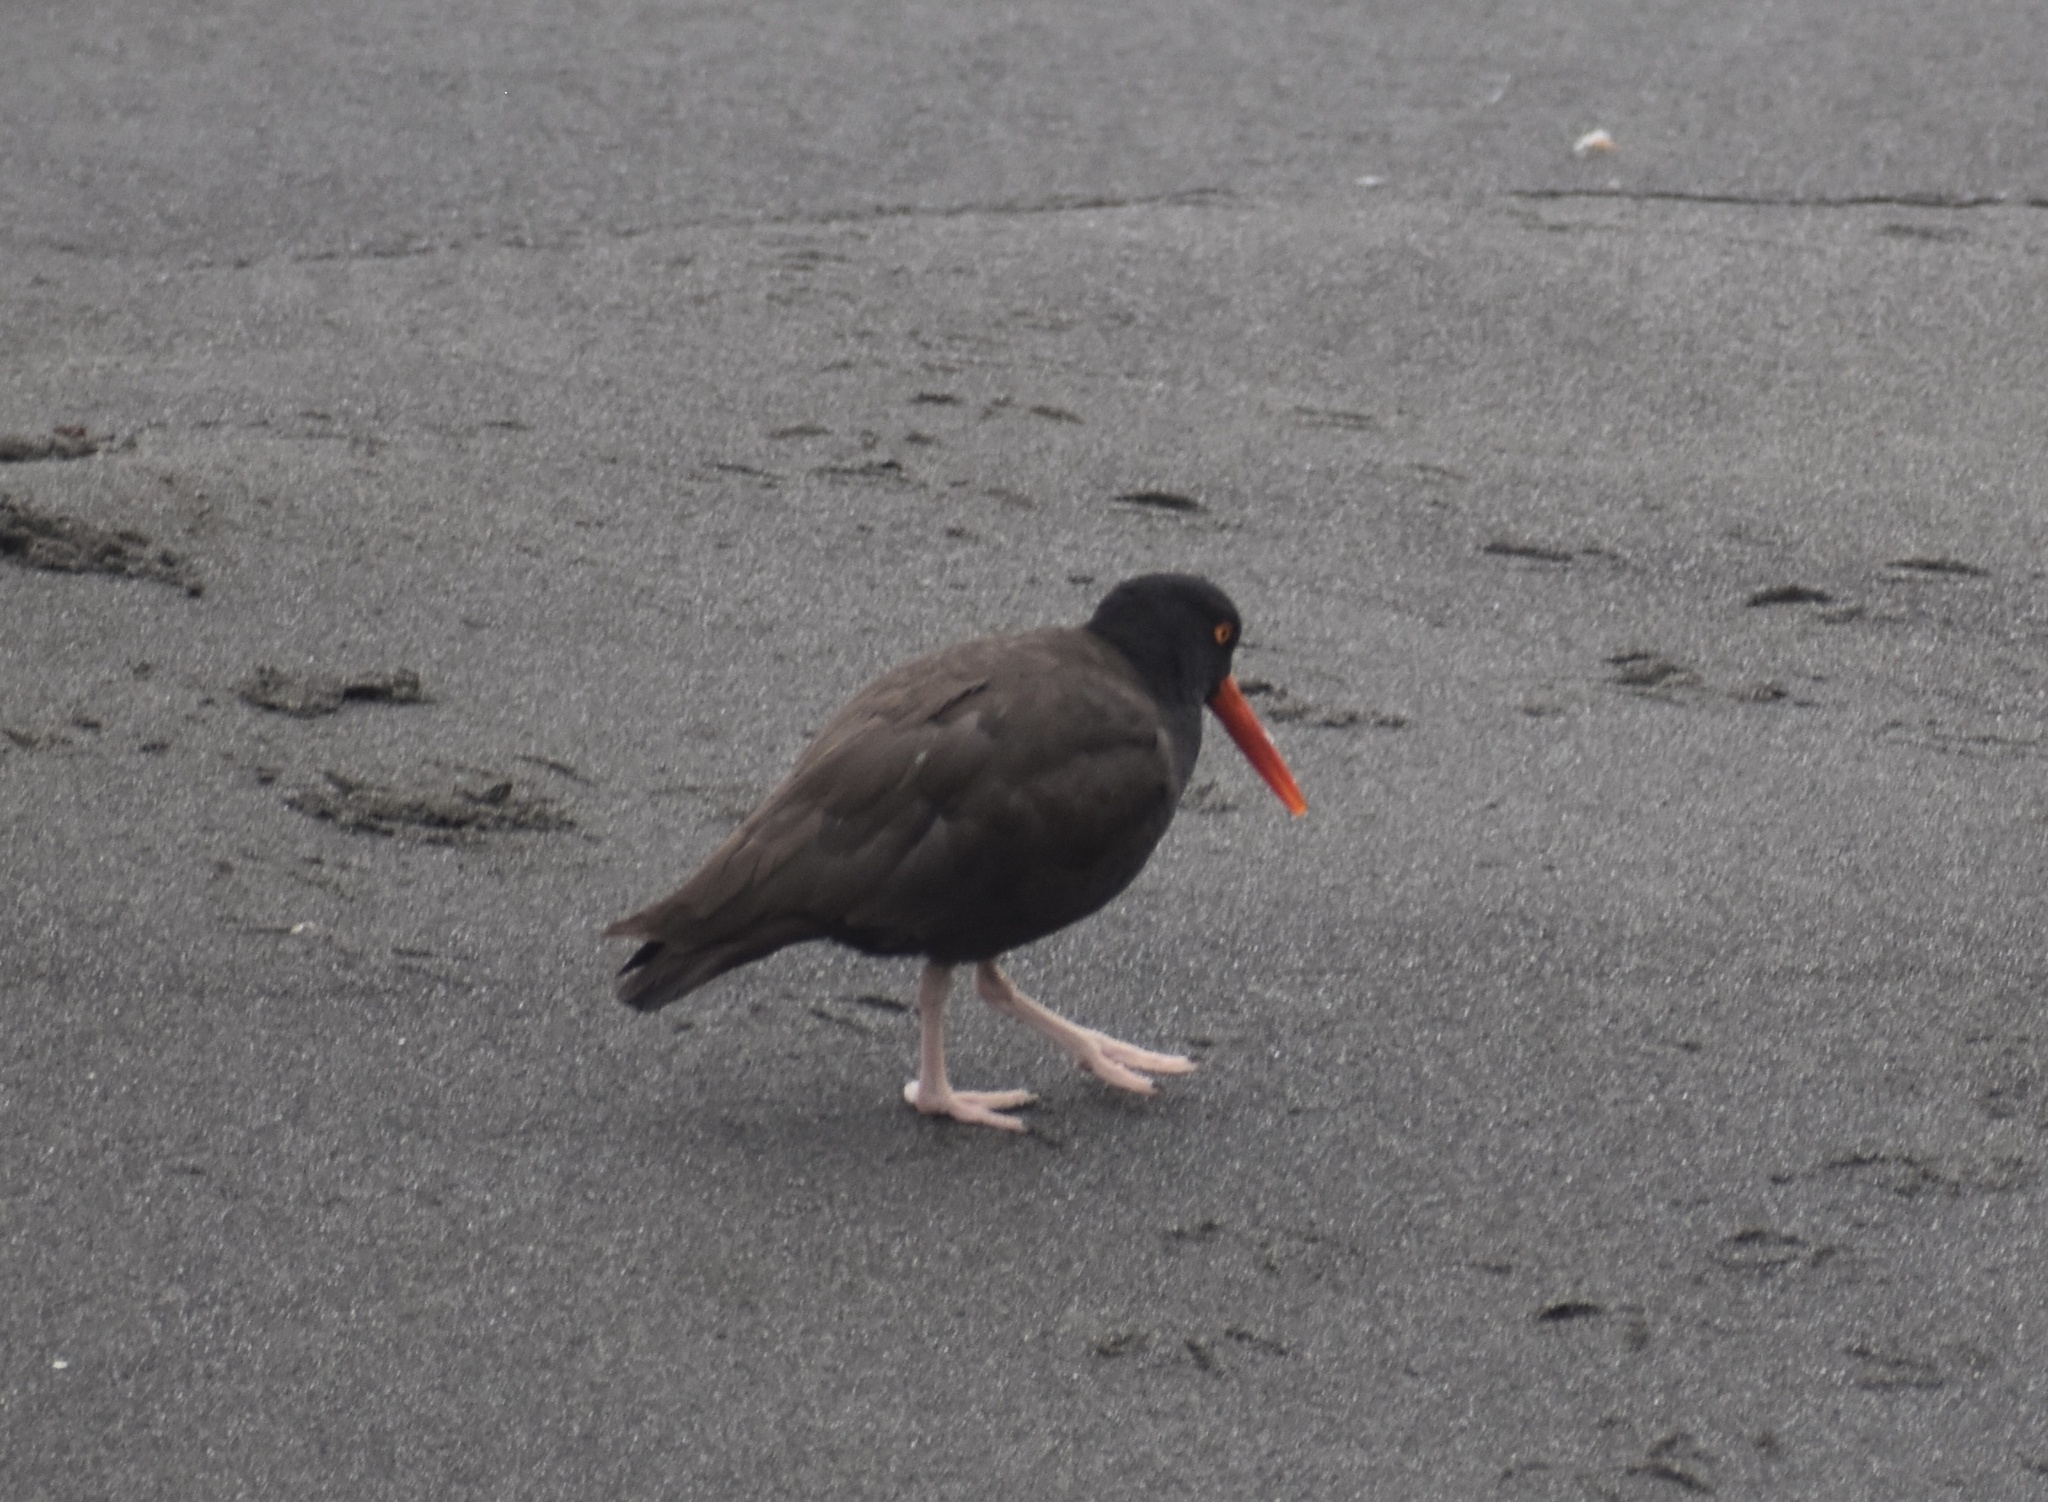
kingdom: Animalia
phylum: Chordata
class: Aves
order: Charadriiformes
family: Haematopodidae
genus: Haematopus
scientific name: Haematopus bachmani
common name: Black oystercatcher
